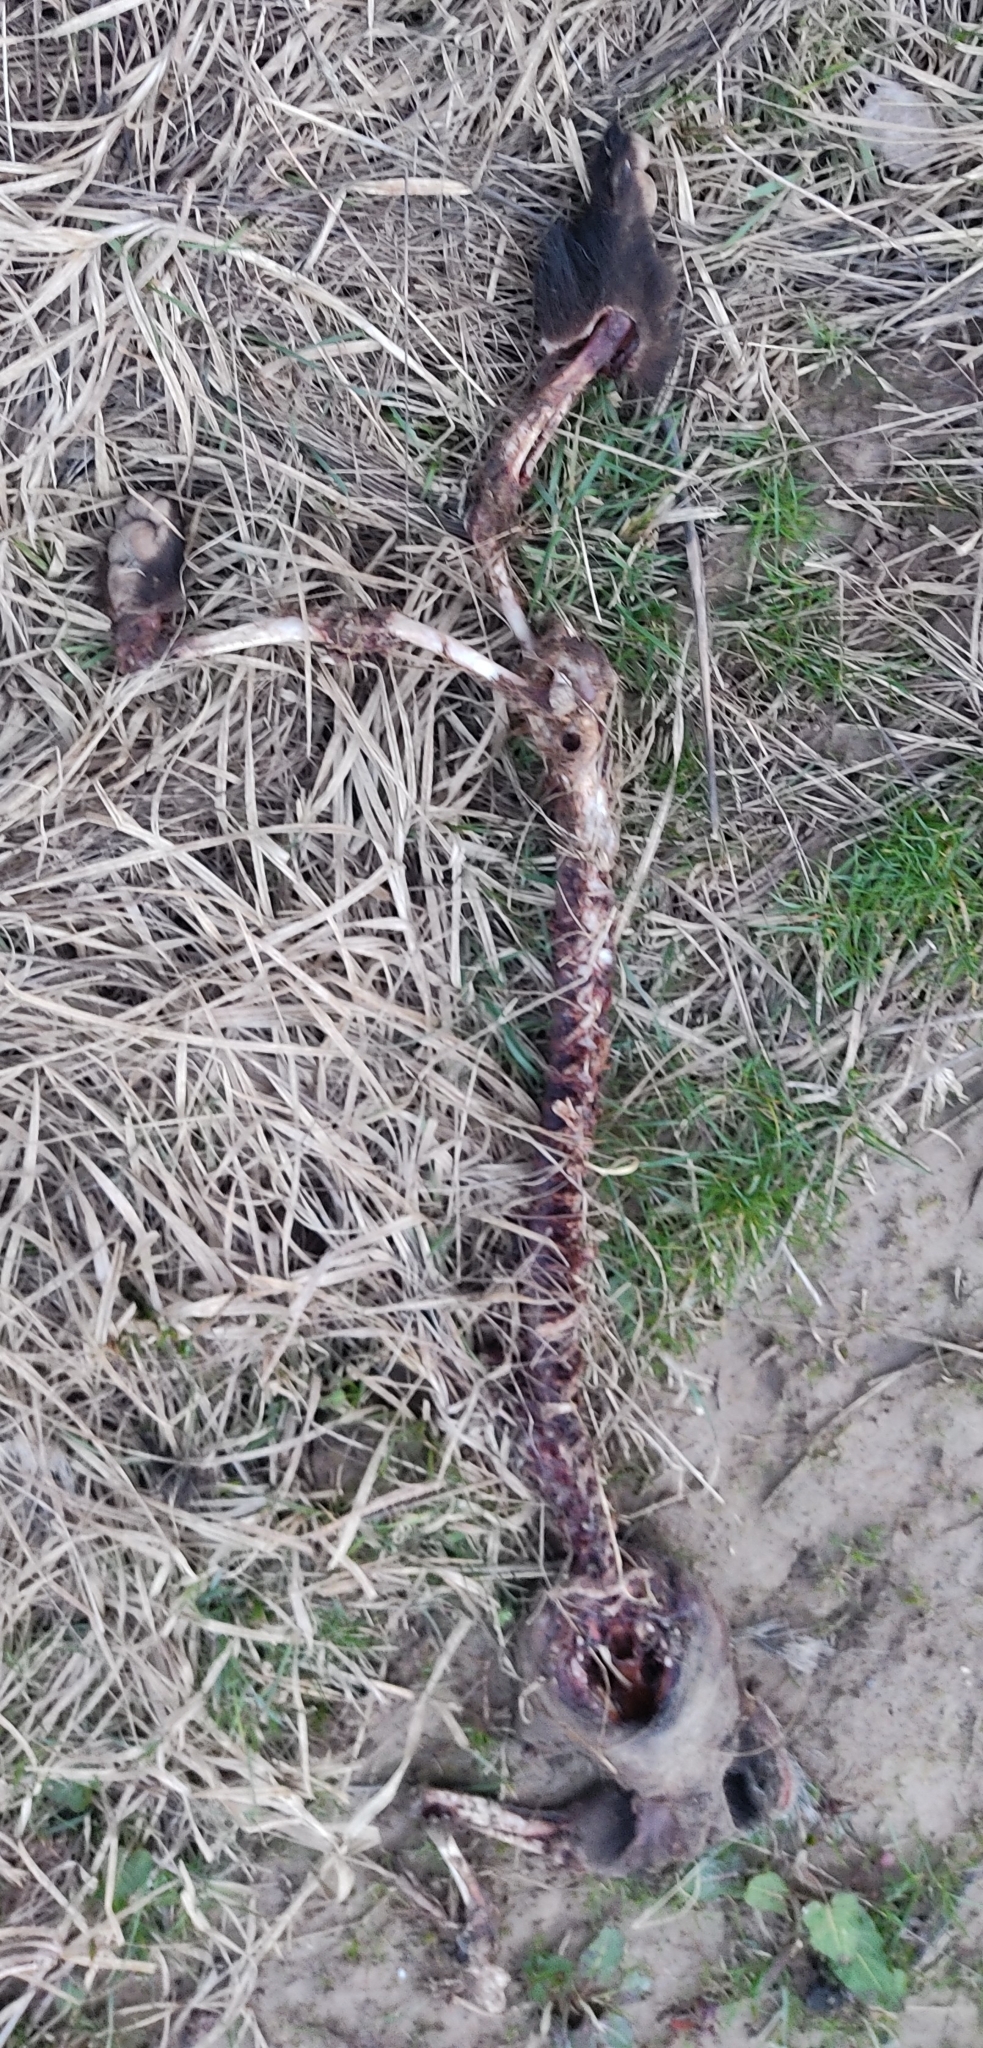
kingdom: Animalia
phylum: Chordata
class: Mammalia
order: Carnivora
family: Mustelidae
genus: Meles
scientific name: Meles meles
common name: Eurasian badger
